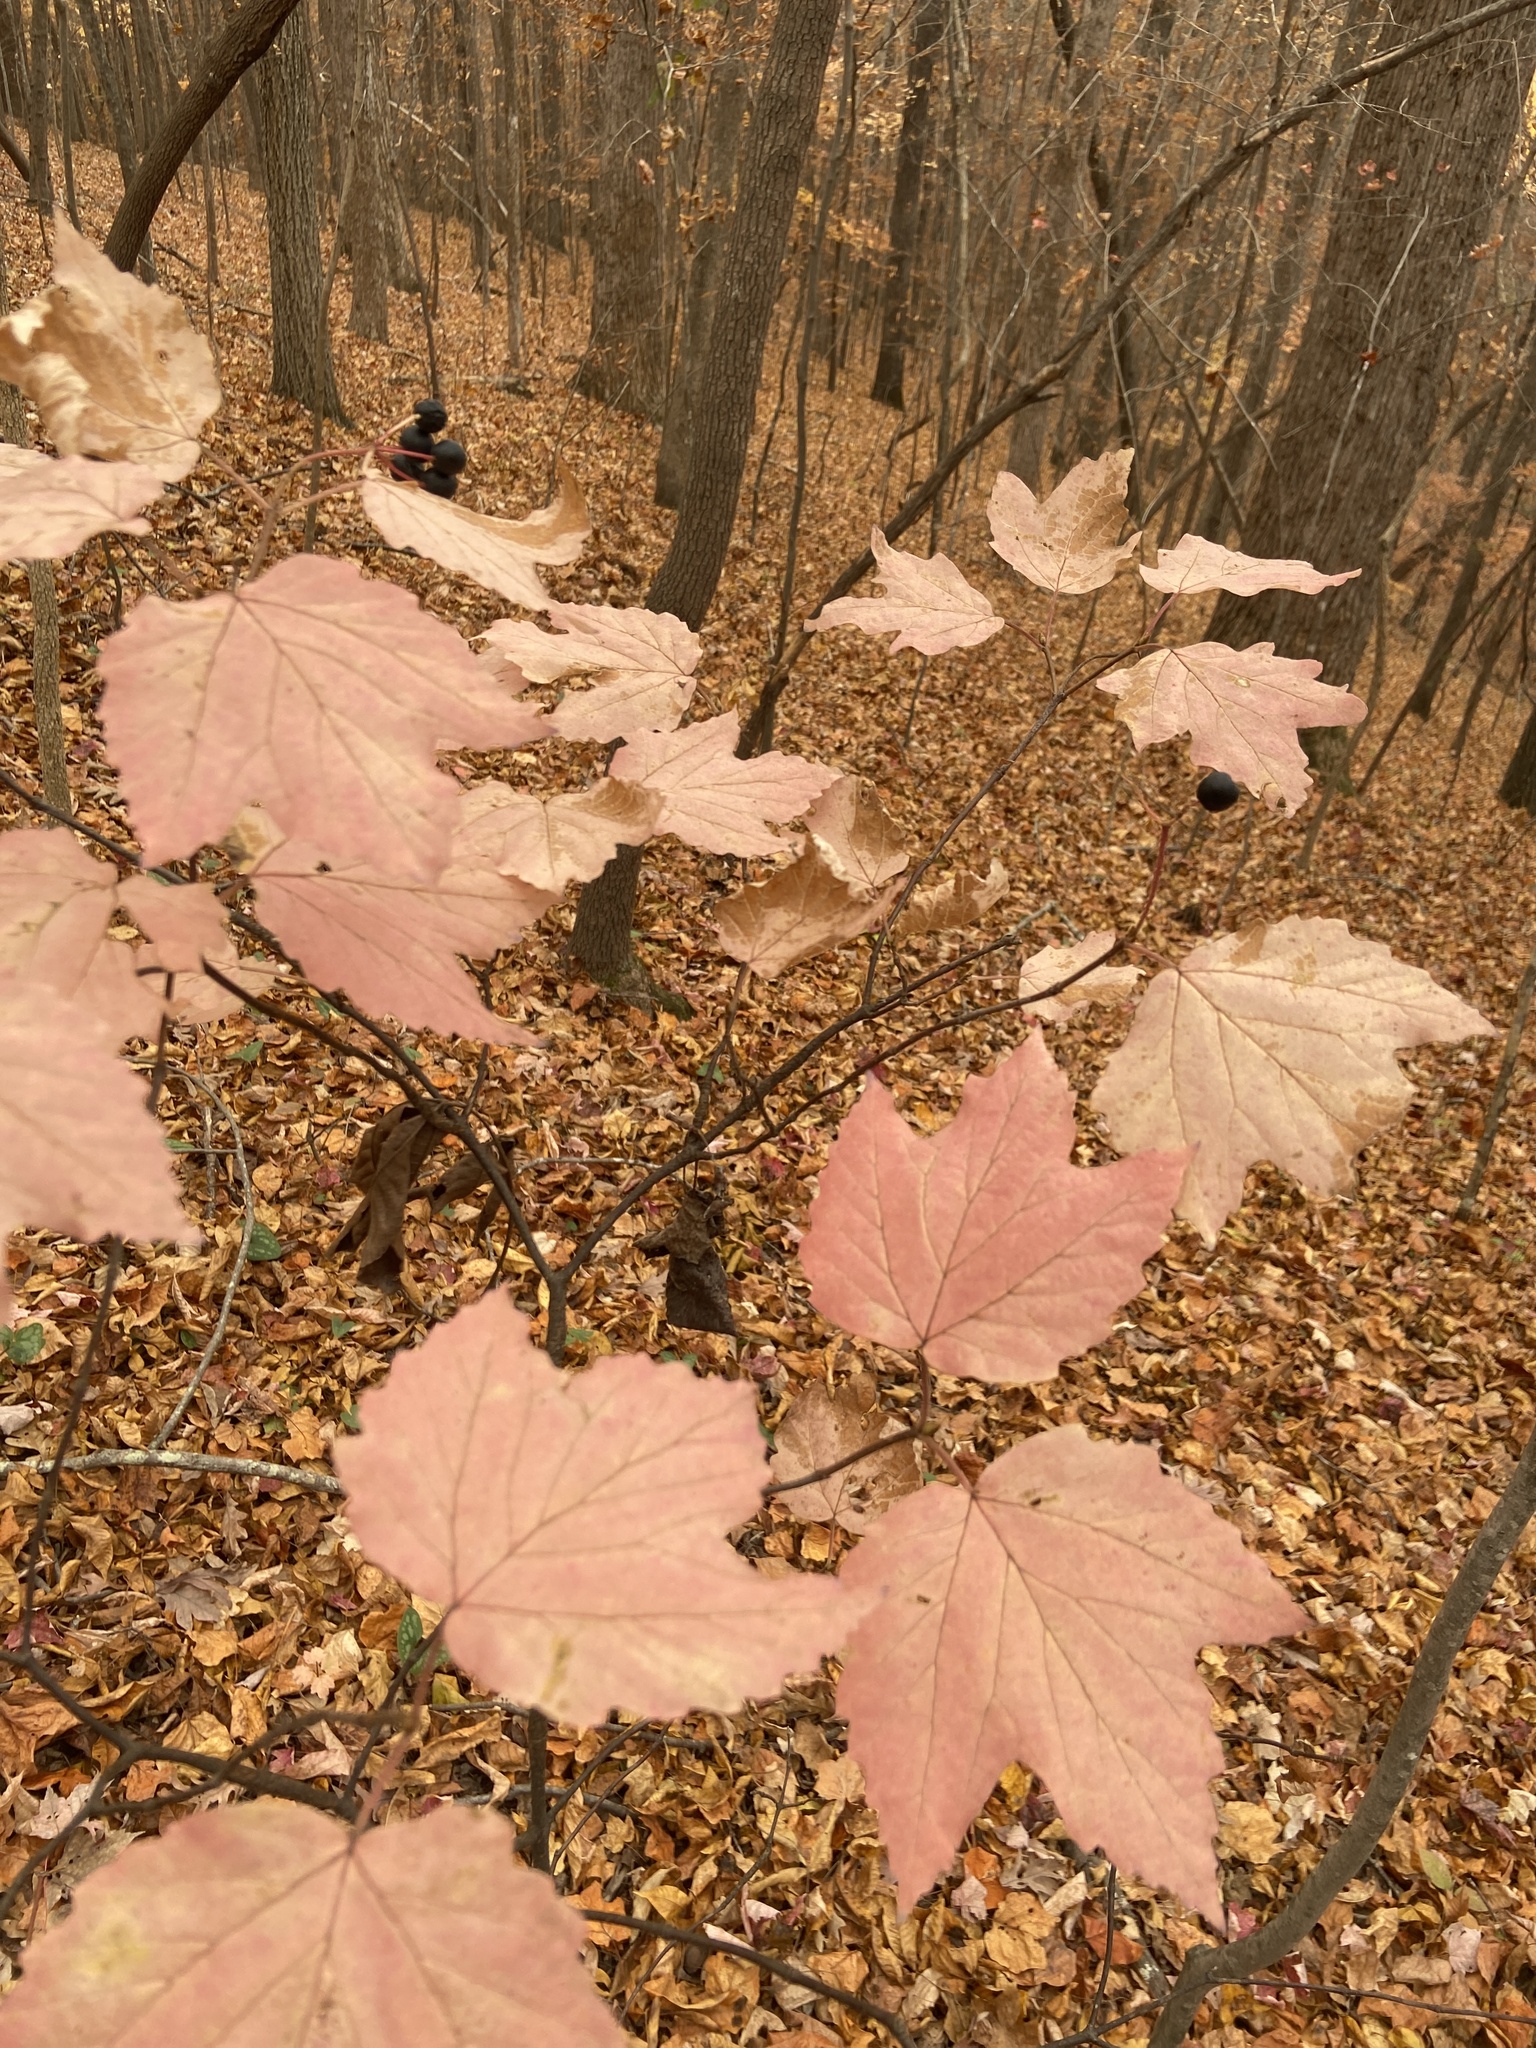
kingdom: Plantae
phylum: Tracheophyta
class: Magnoliopsida
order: Dipsacales
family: Viburnaceae
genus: Viburnum
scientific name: Viburnum acerifolium
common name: Dockmackie
